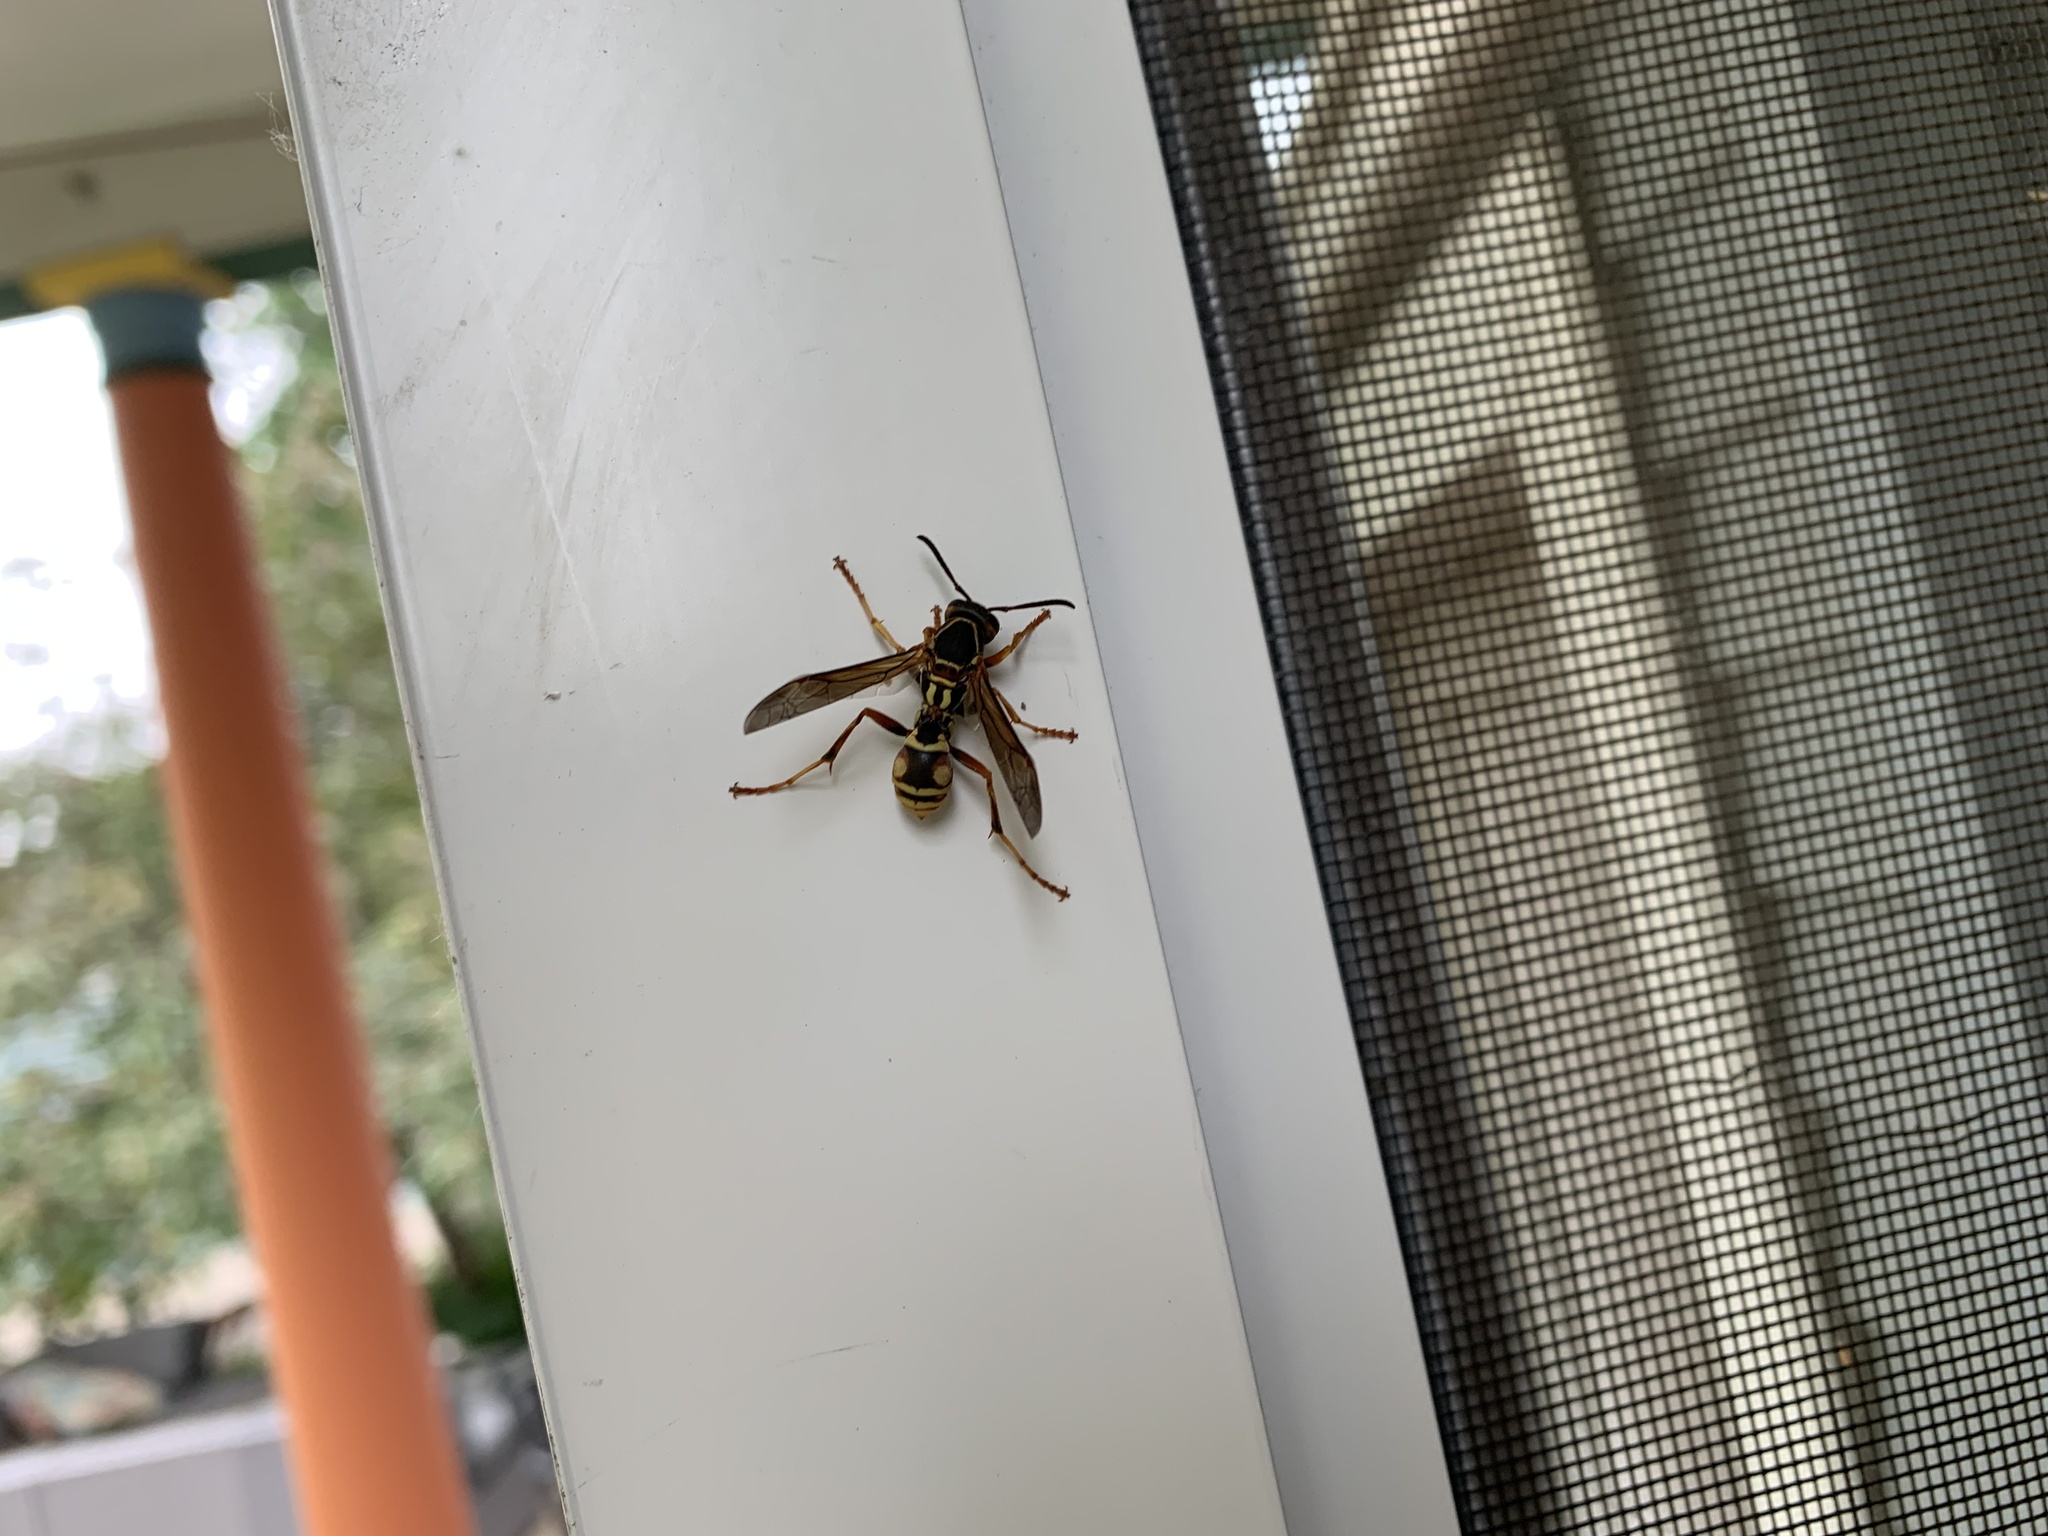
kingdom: Animalia
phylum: Arthropoda
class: Insecta
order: Hymenoptera
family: Eumenidae
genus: Polistes
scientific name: Polistes fuscatus
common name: Dark paper wasp
